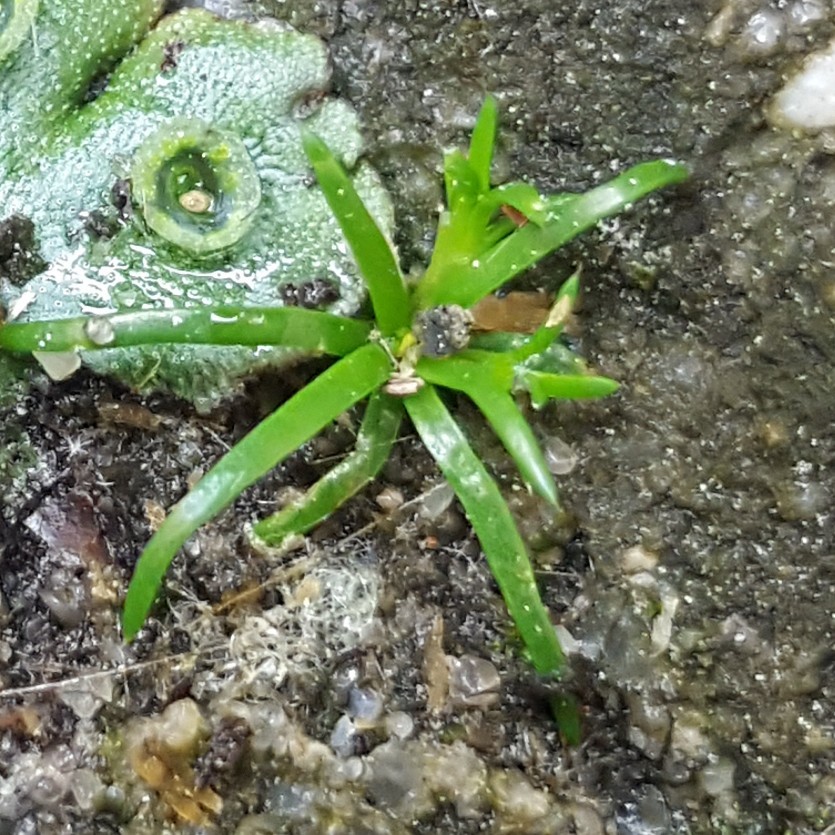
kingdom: Plantae
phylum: Tracheophyta
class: Magnoliopsida
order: Caryophyllales
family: Caryophyllaceae
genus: Sagina
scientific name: Sagina procumbens
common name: Procumbent pearlwort
